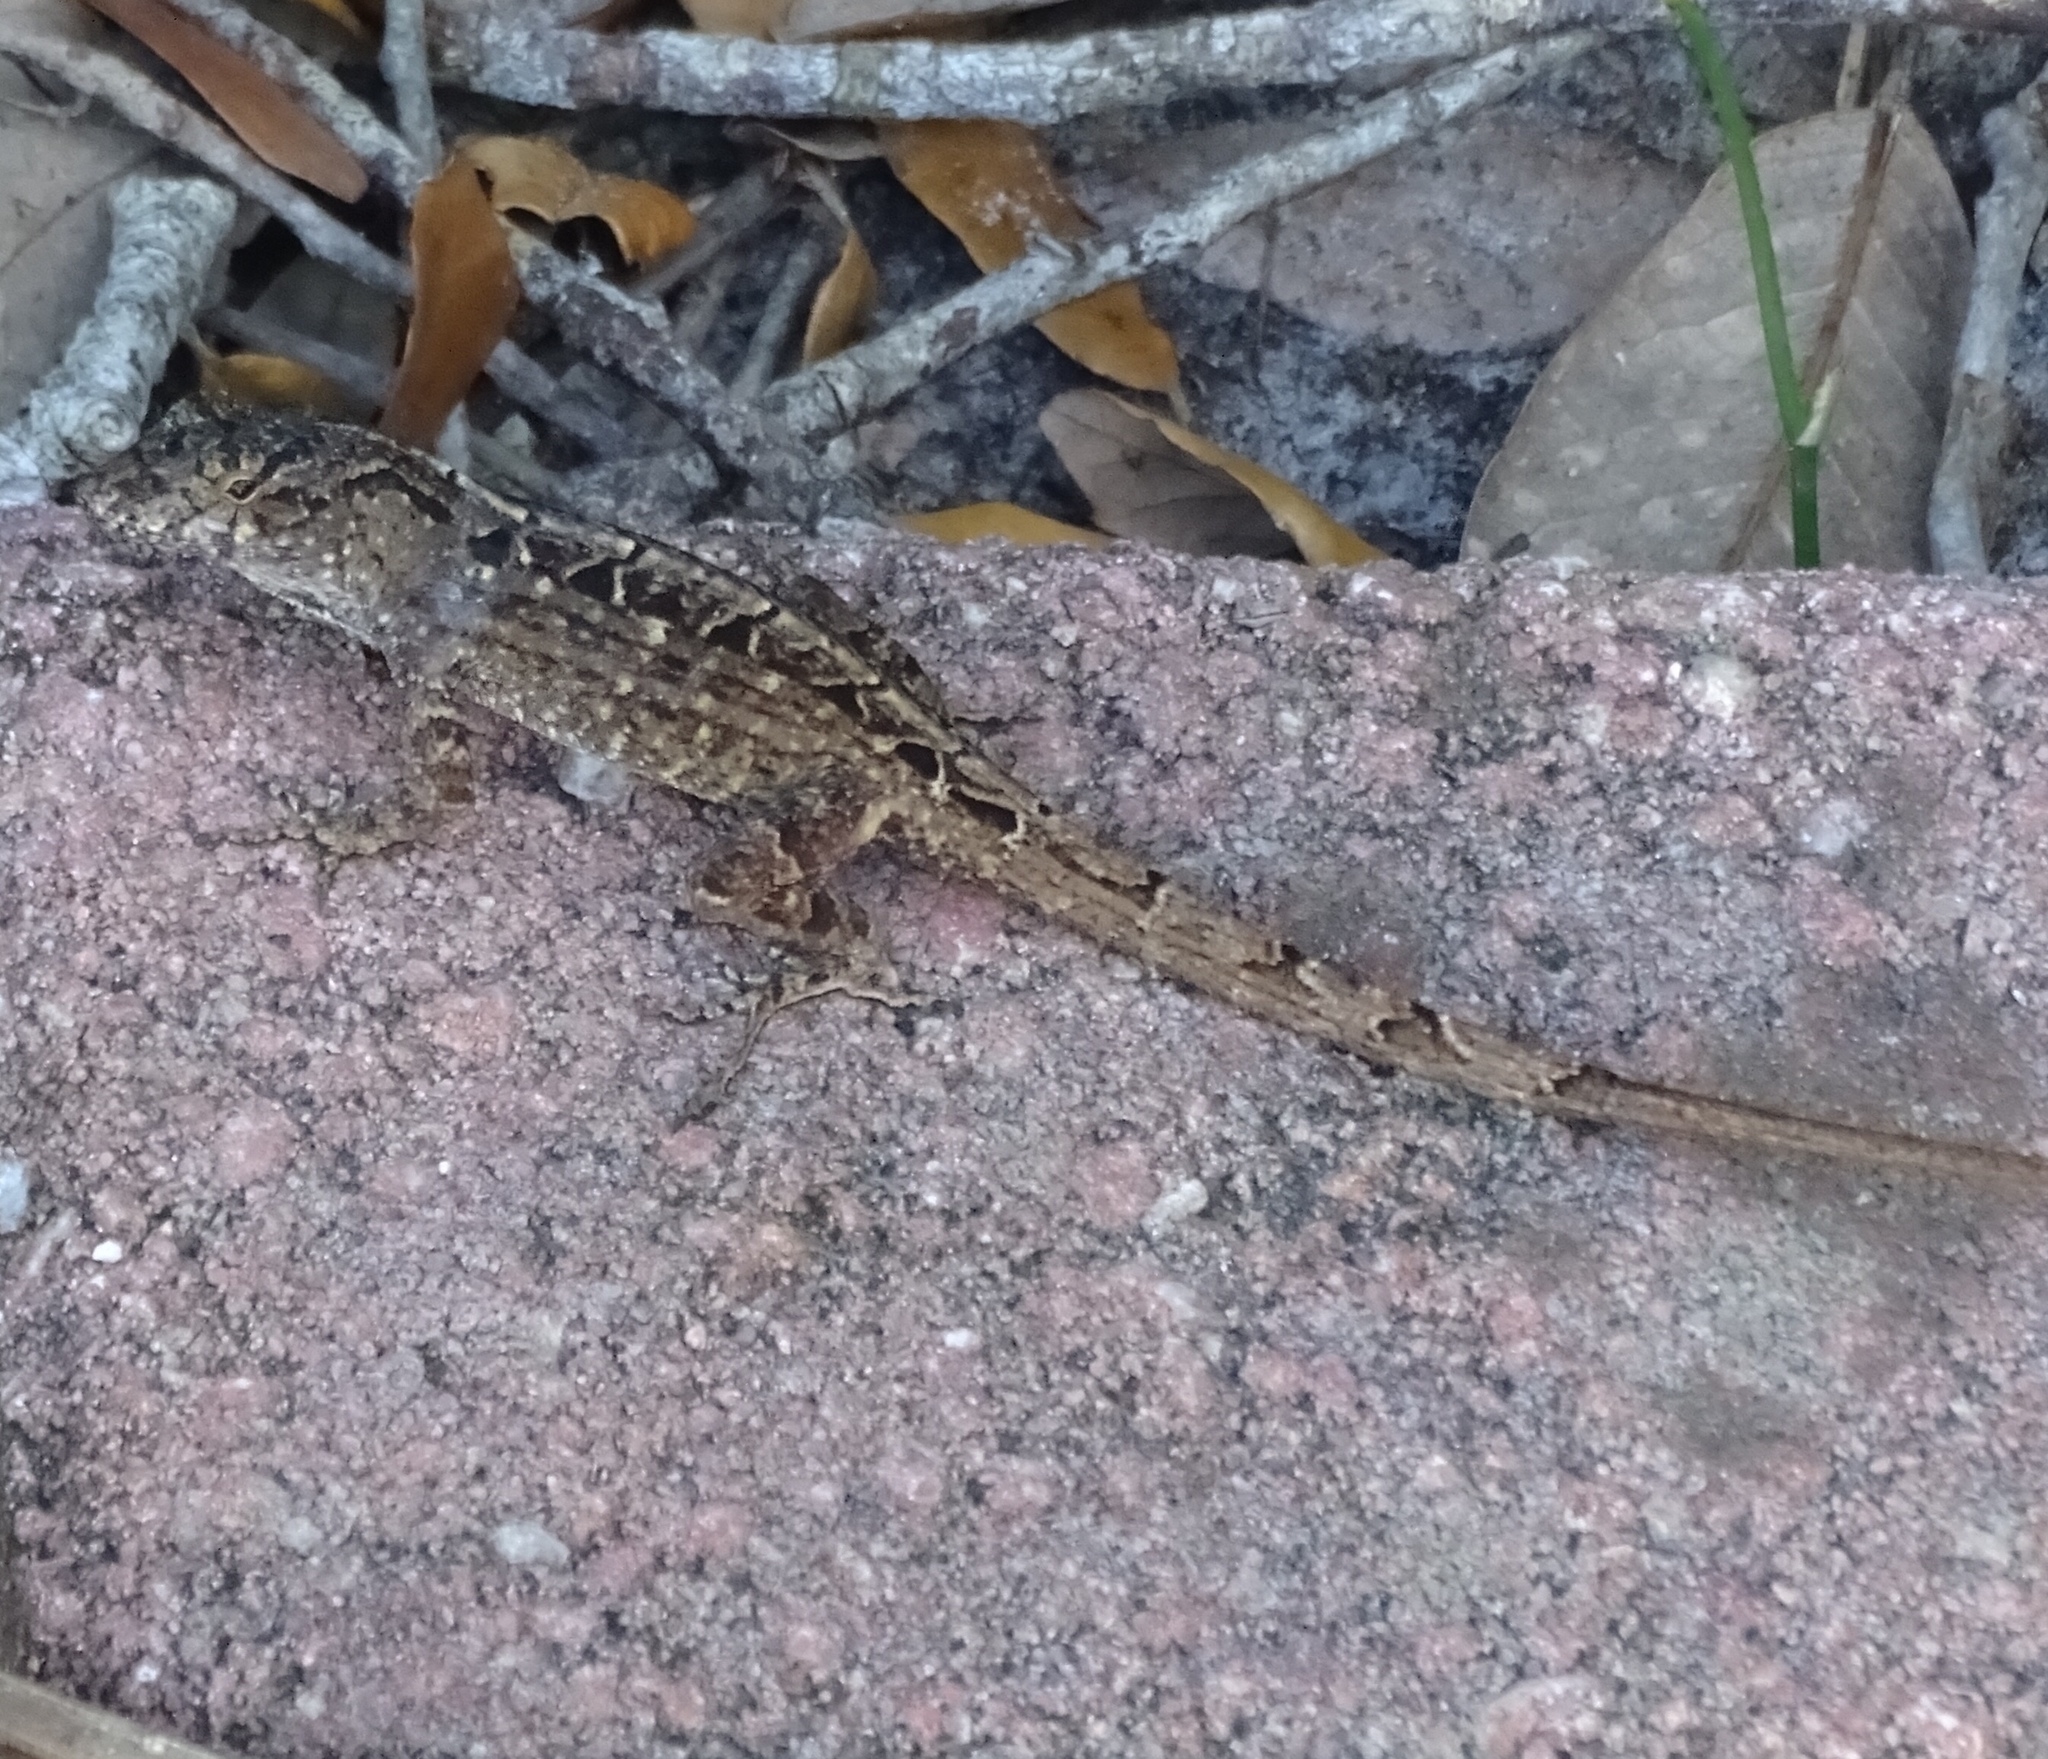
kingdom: Animalia
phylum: Chordata
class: Squamata
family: Dactyloidae
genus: Anolis
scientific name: Anolis sagrei
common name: Brown anole
